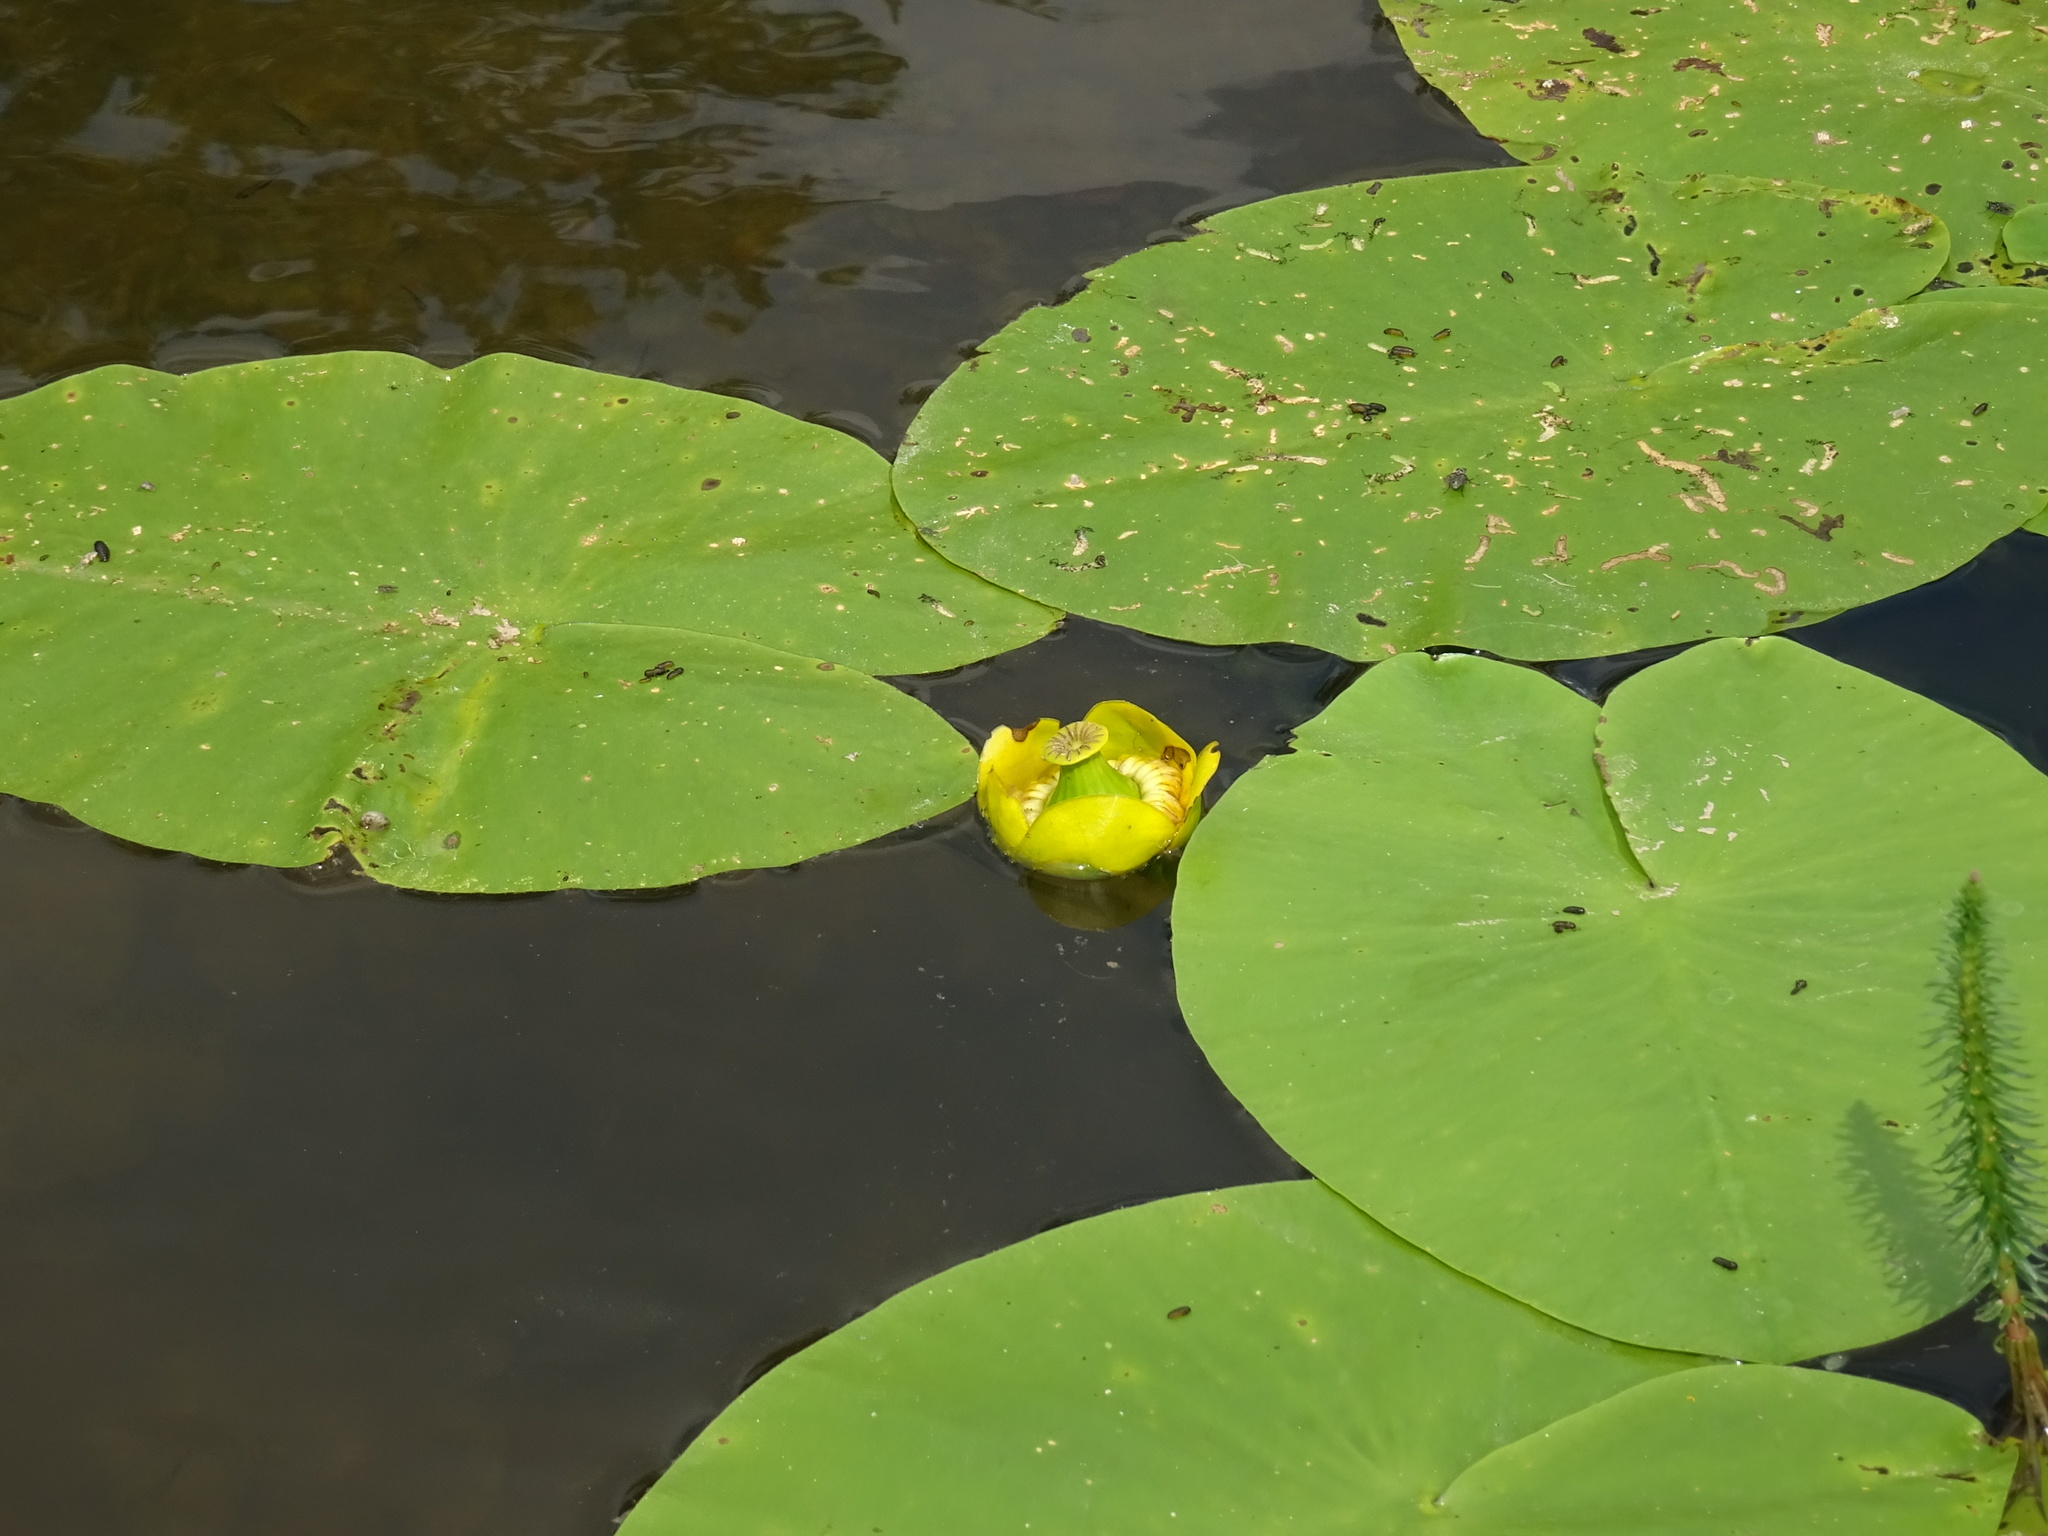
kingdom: Plantae
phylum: Tracheophyta
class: Magnoliopsida
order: Nymphaeales
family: Nymphaeaceae
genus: Nuphar
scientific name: Nuphar lutea
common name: Yellow water-lily
